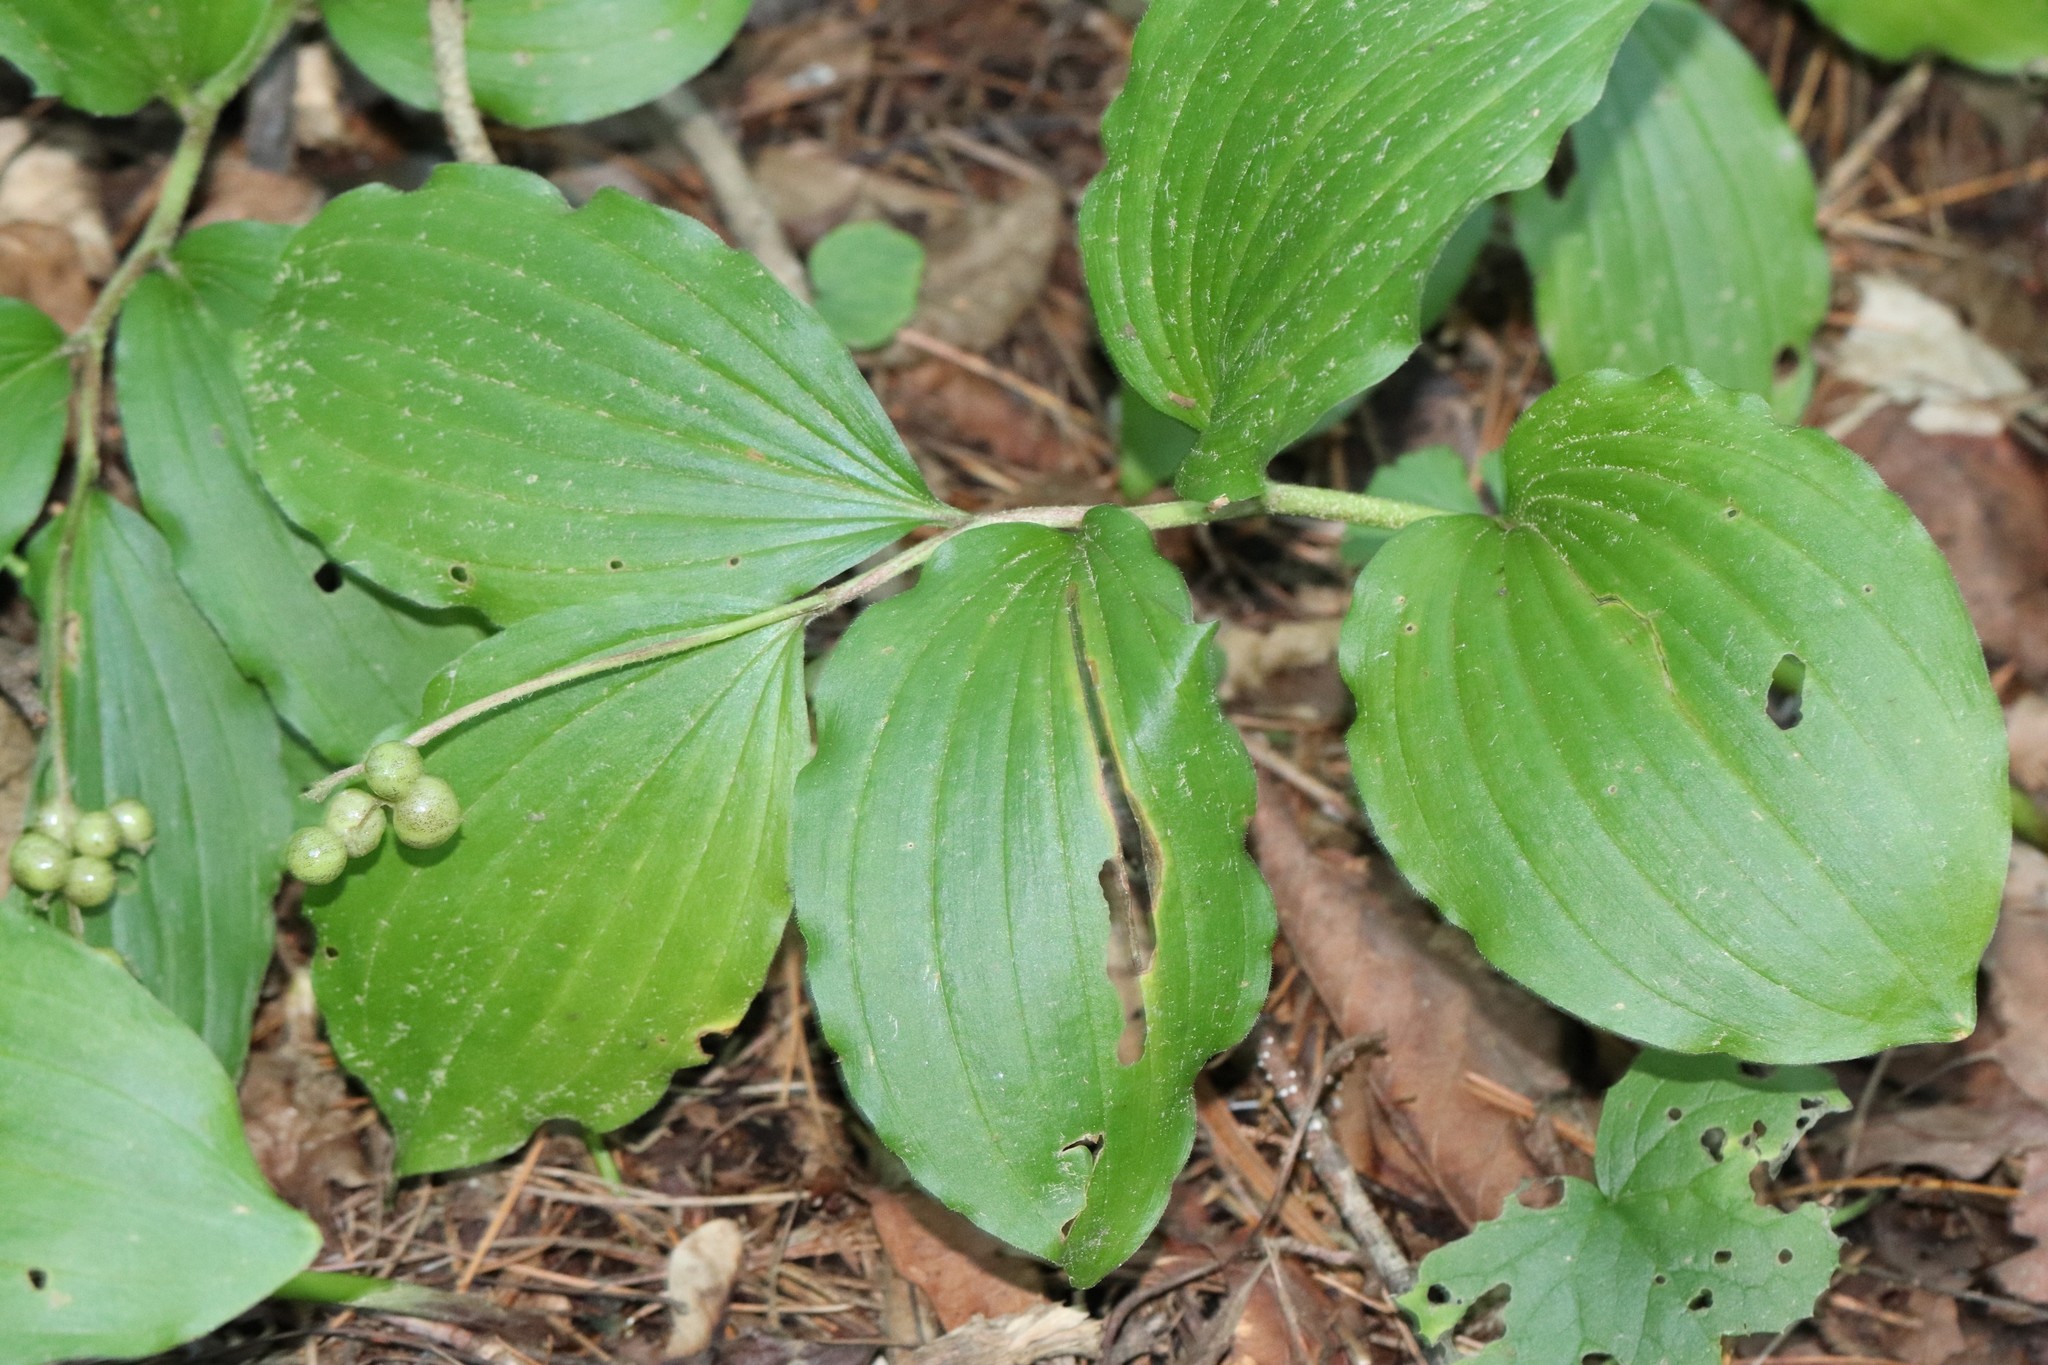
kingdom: Plantae
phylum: Tracheophyta
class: Liliopsida
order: Asparagales
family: Asparagaceae
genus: Maianthemum
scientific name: Maianthemum japonicum
